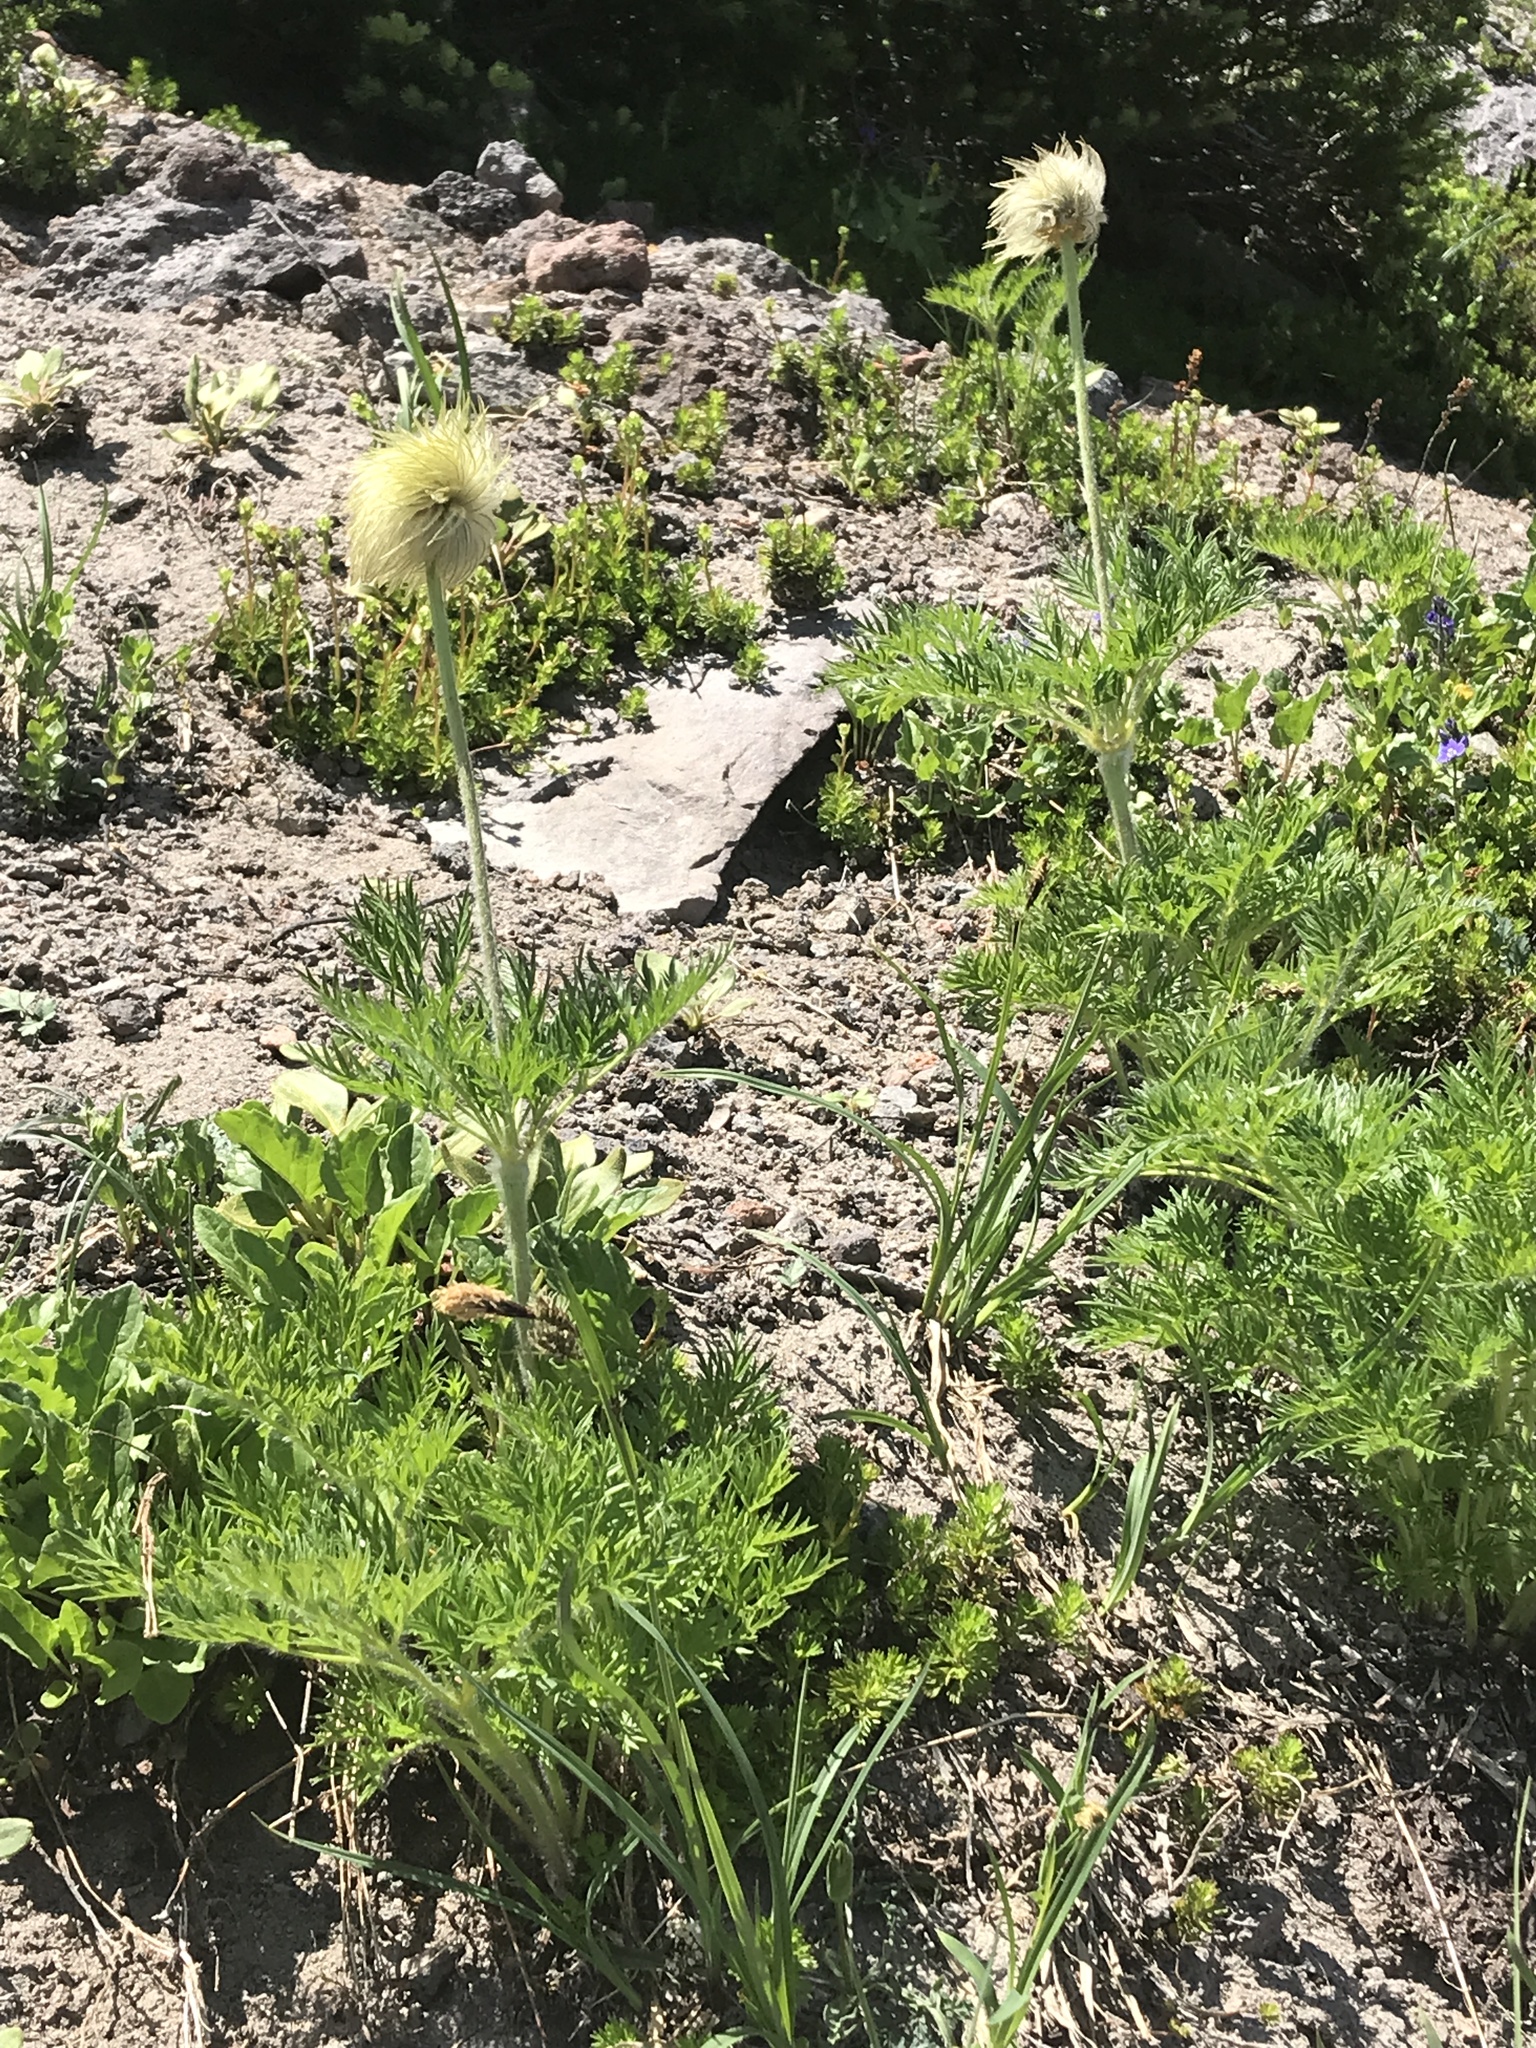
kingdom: Plantae
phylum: Tracheophyta
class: Magnoliopsida
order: Ranunculales
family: Ranunculaceae
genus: Pulsatilla
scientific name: Pulsatilla occidentalis
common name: Mountain pasqueflower
